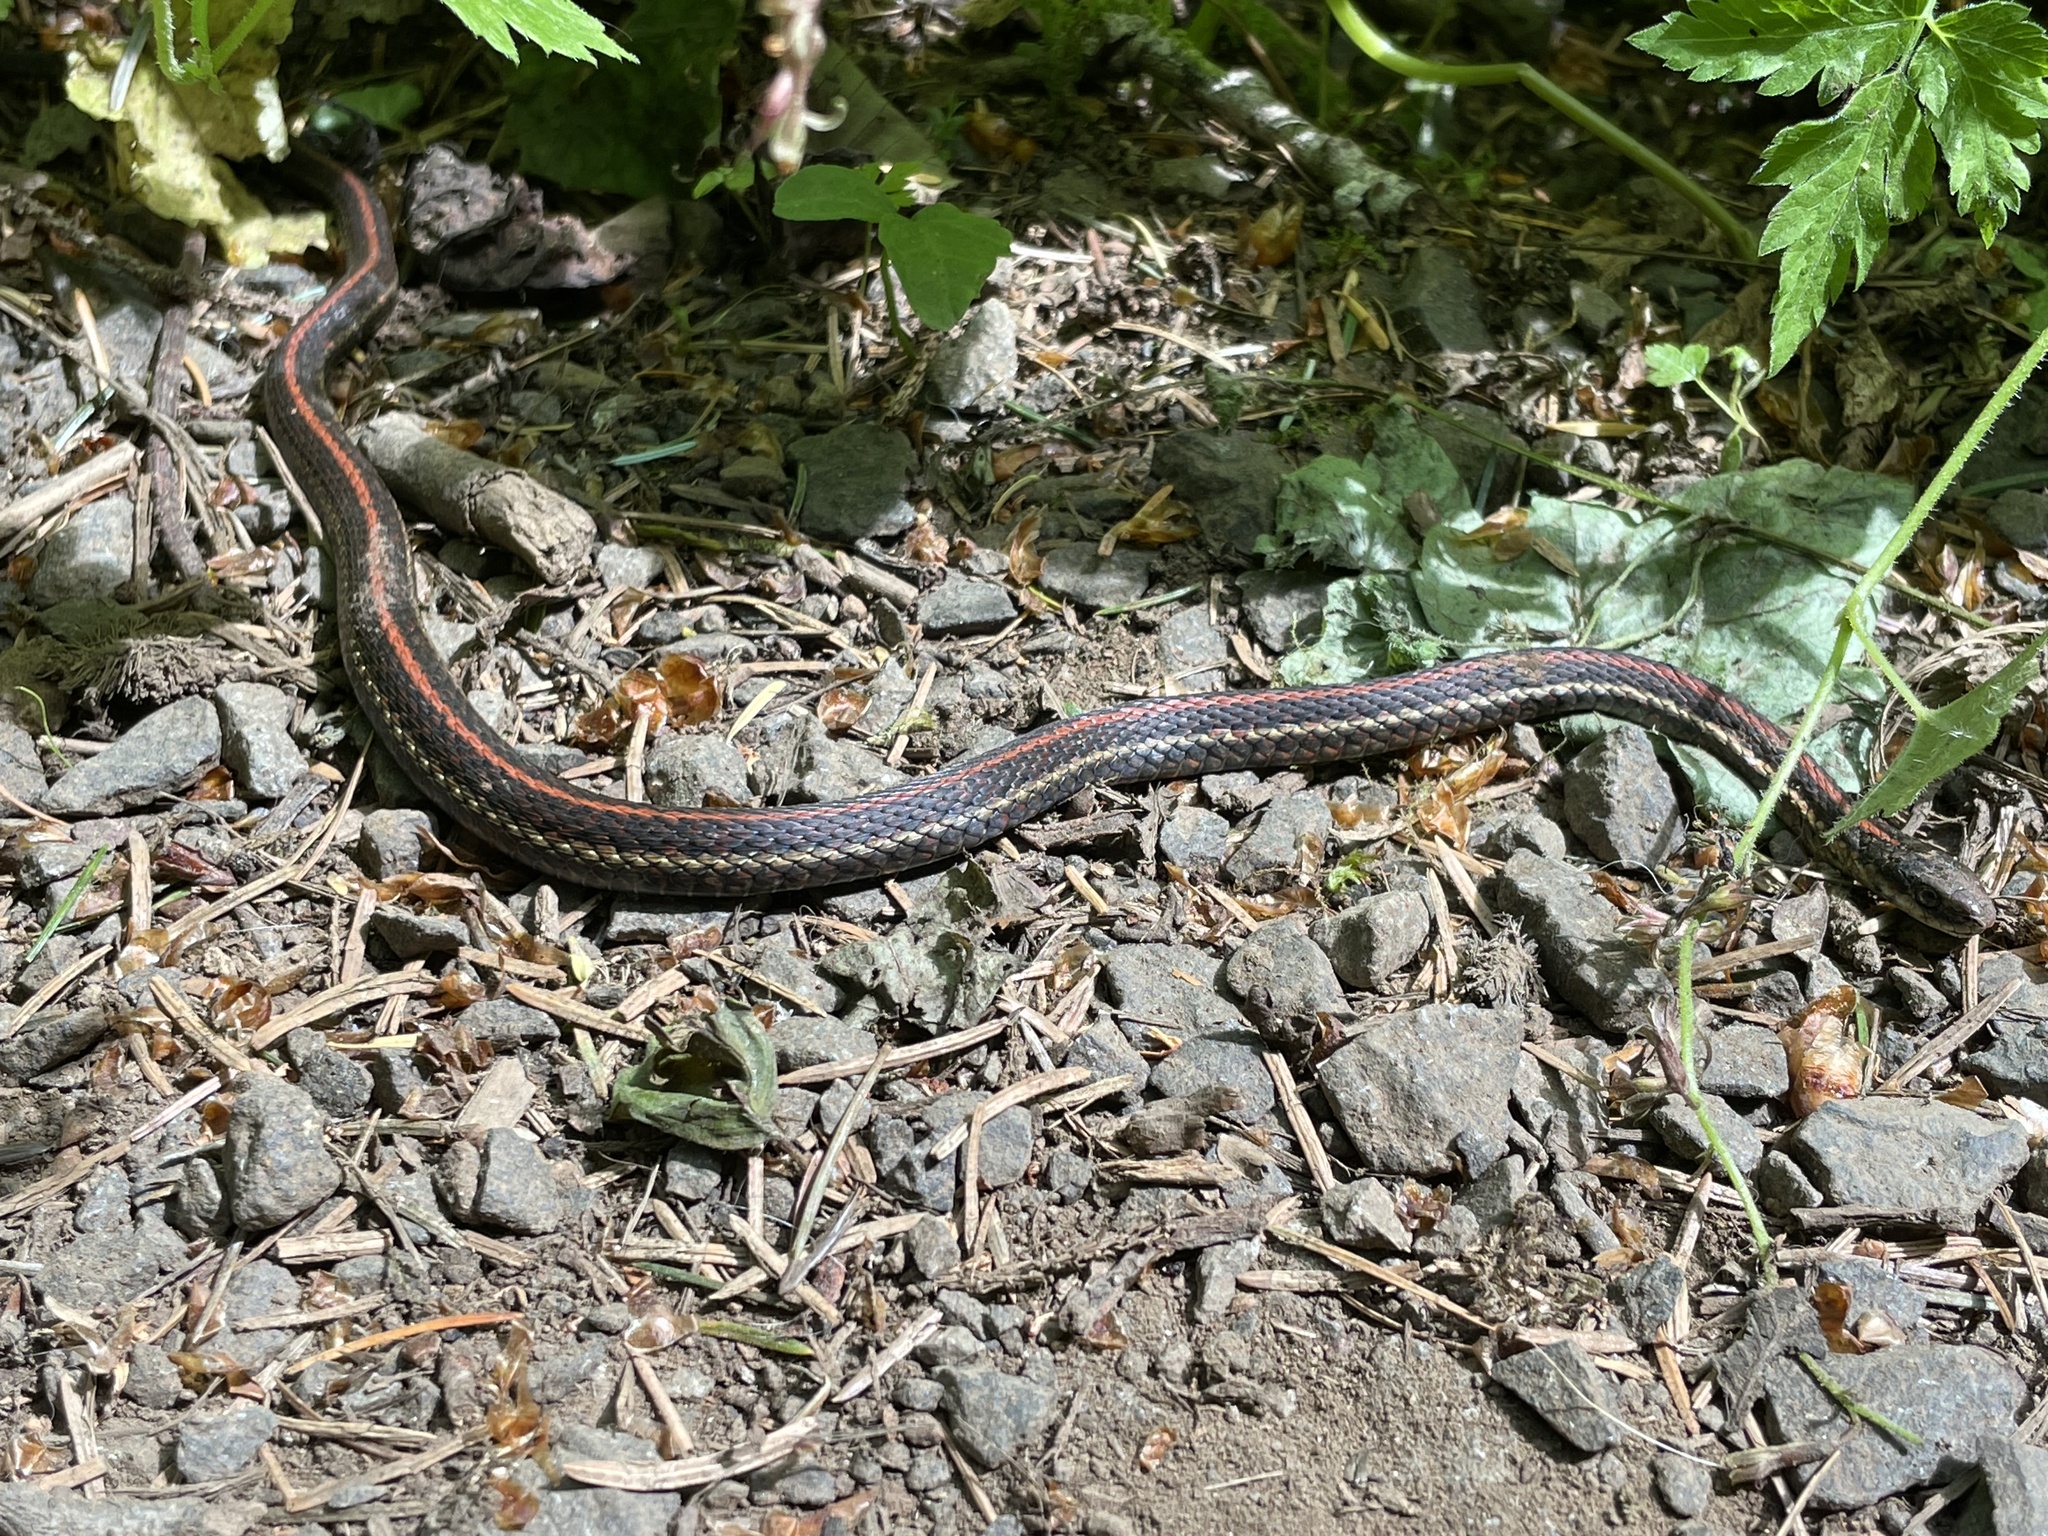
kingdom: Animalia
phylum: Chordata
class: Squamata
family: Colubridae
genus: Thamnophis
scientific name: Thamnophis ordinoides
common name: Northwestern garter snake
